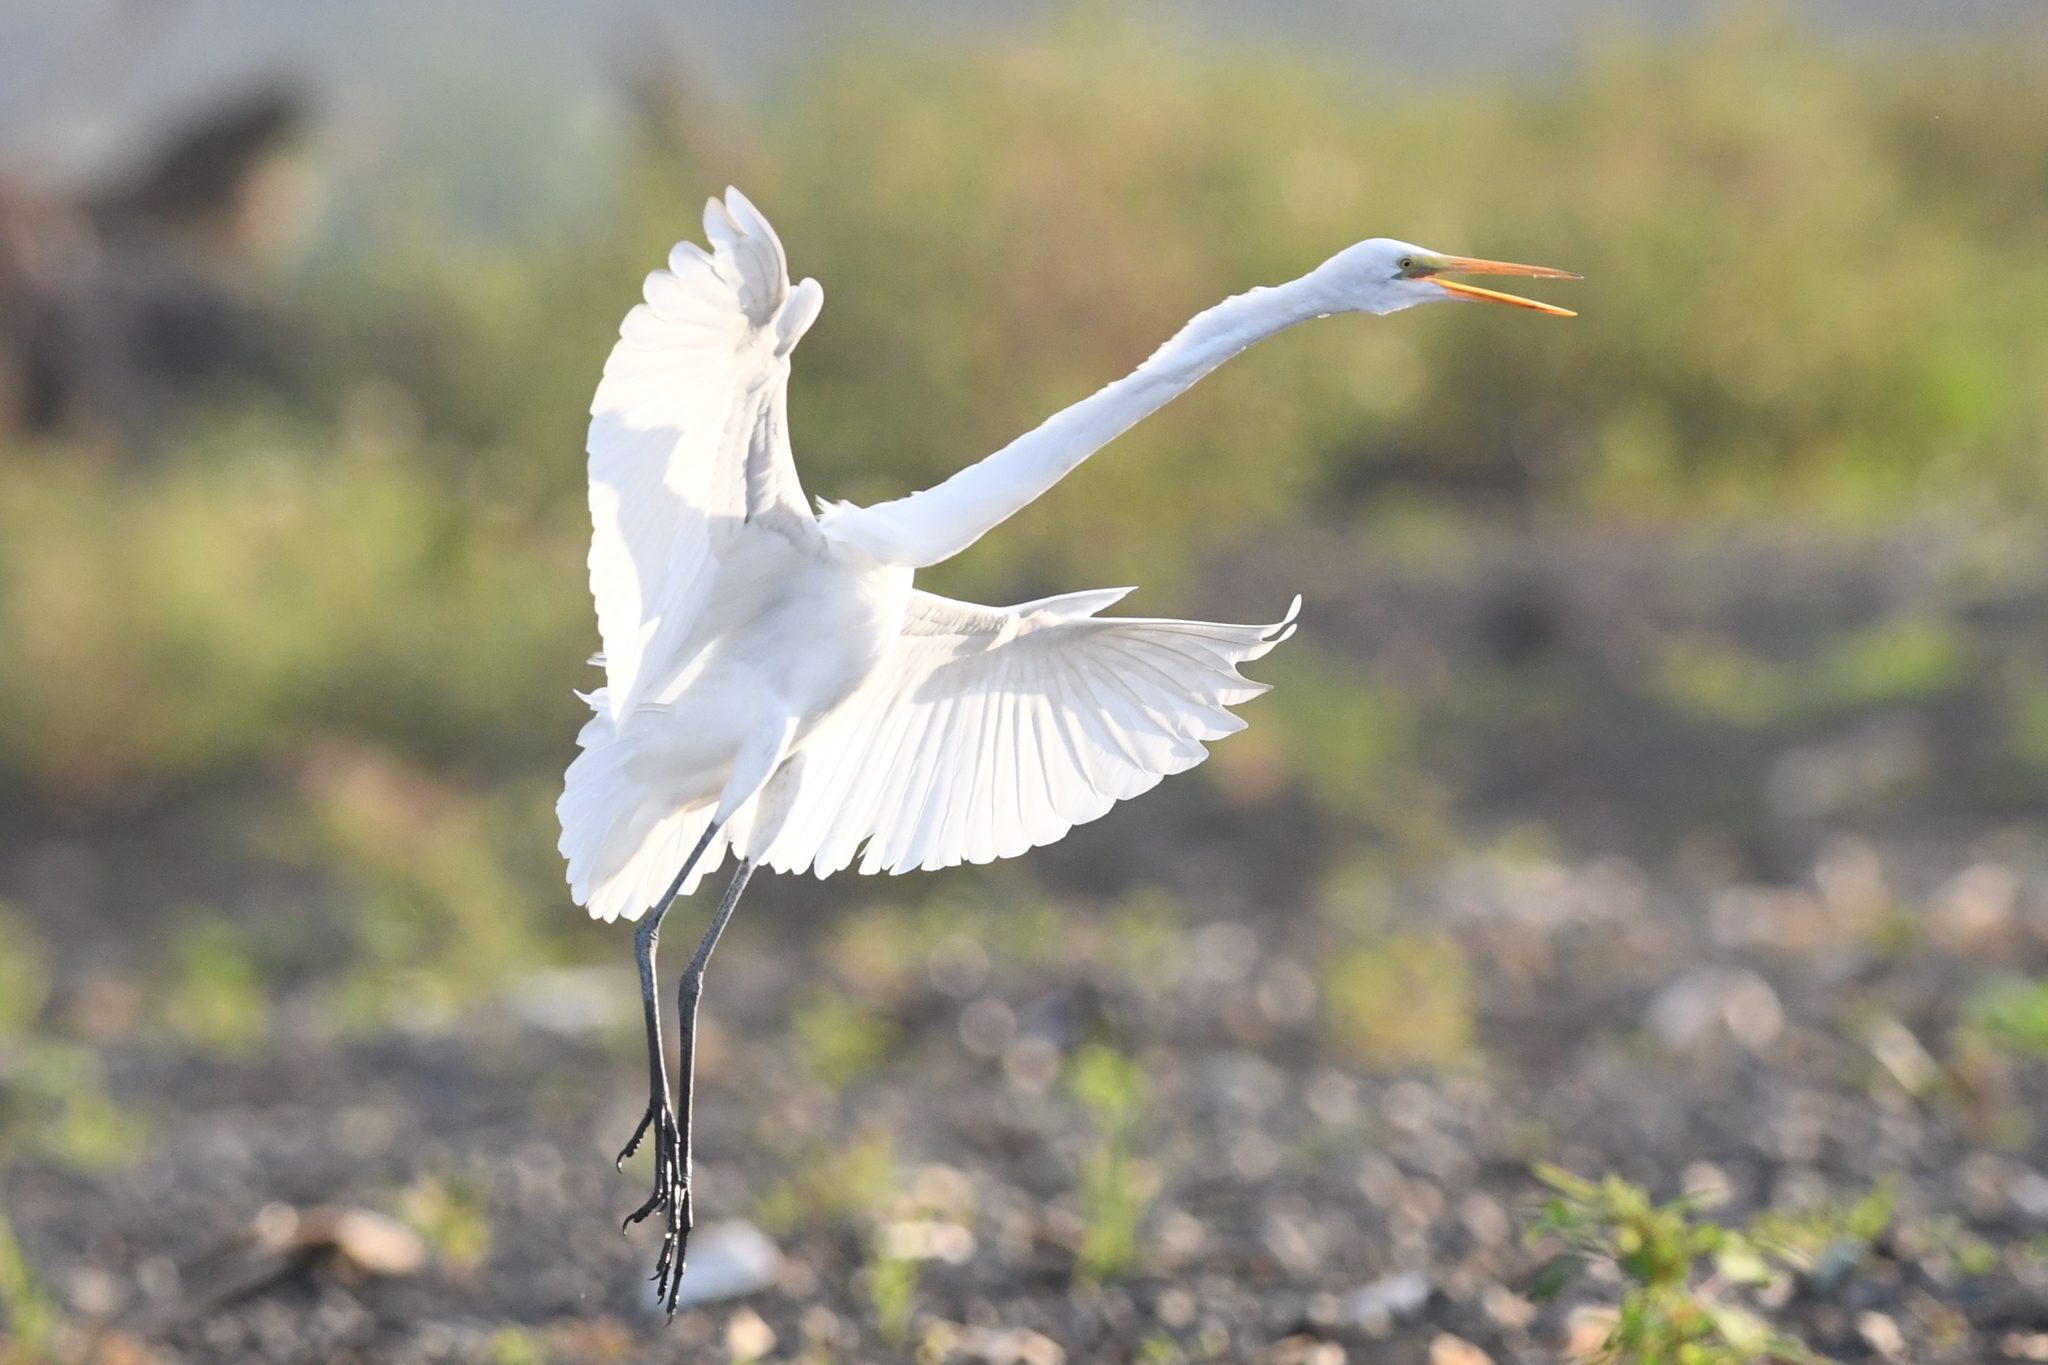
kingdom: Animalia
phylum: Chordata
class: Aves
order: Pelecaniformes
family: Ardeidae
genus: Ardea
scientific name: Ardea alba
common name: Great egret
